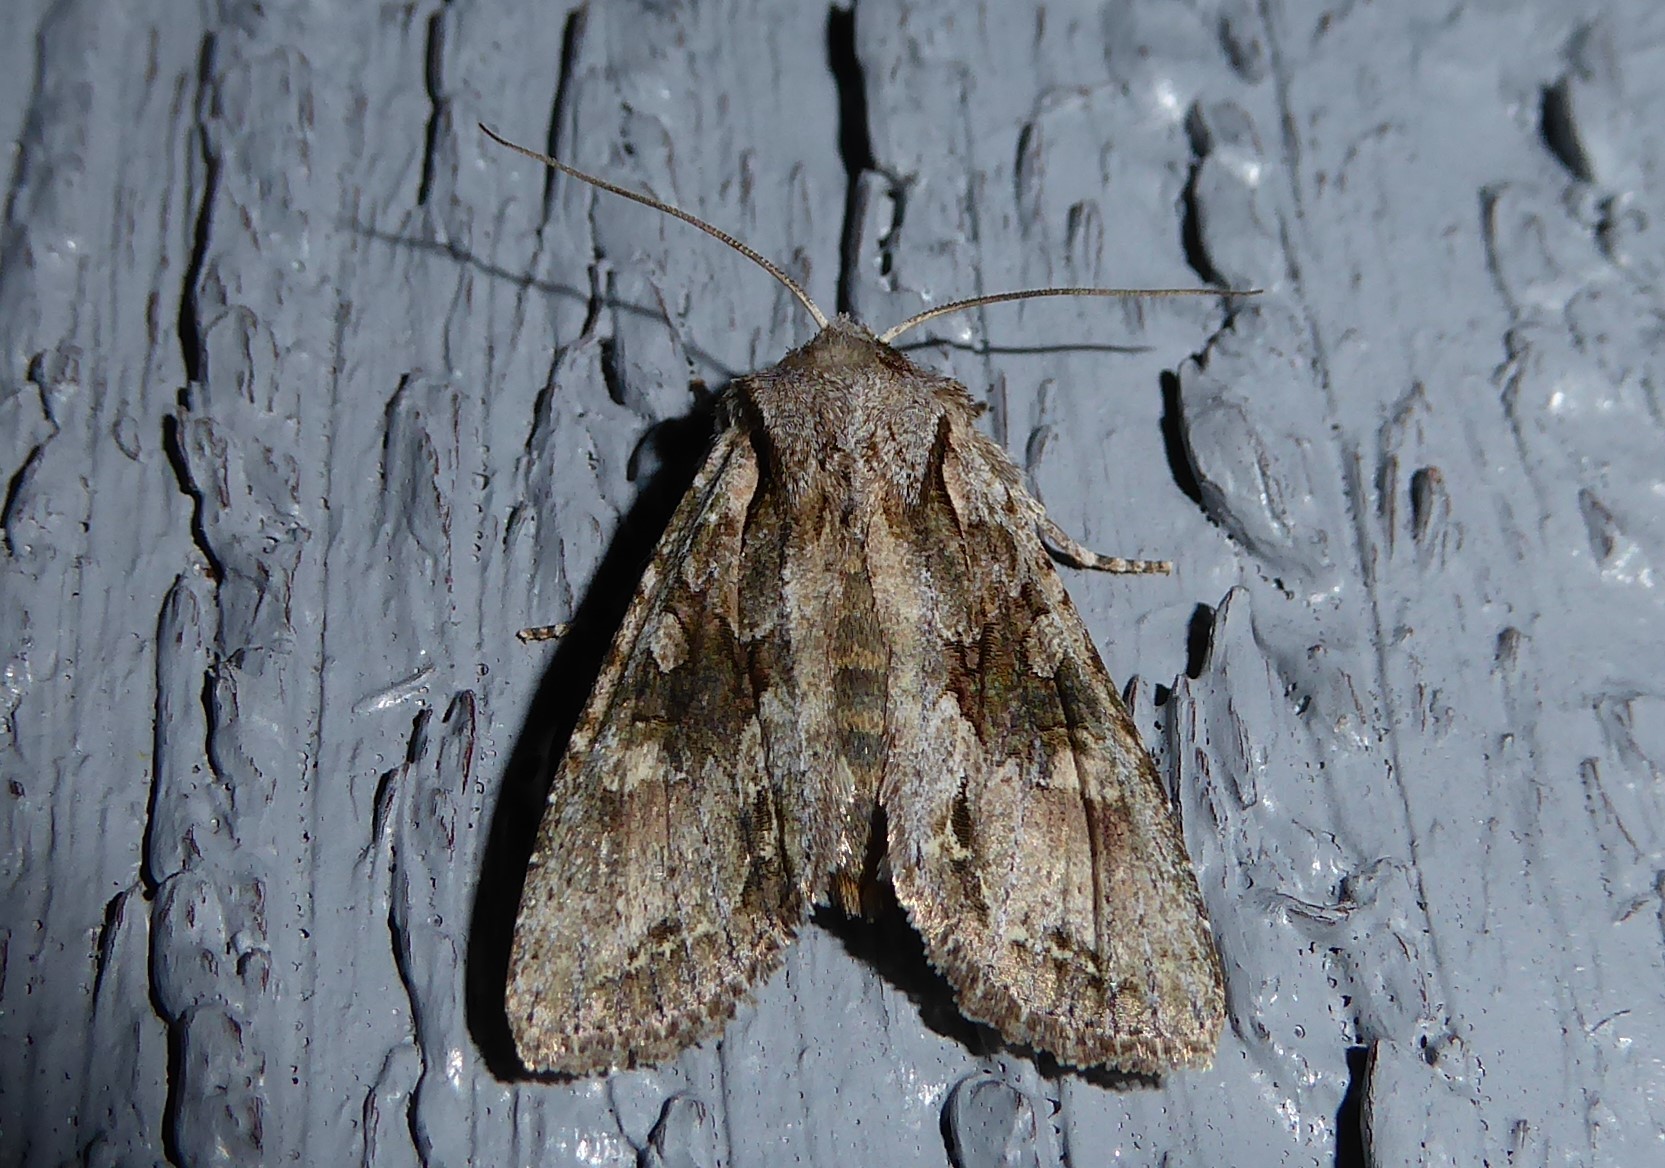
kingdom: Animalia
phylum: Arthropoda
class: Insecta
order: Lepidoptera
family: Noctuidae
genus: Ichneutica
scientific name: Ichneutica mutans
